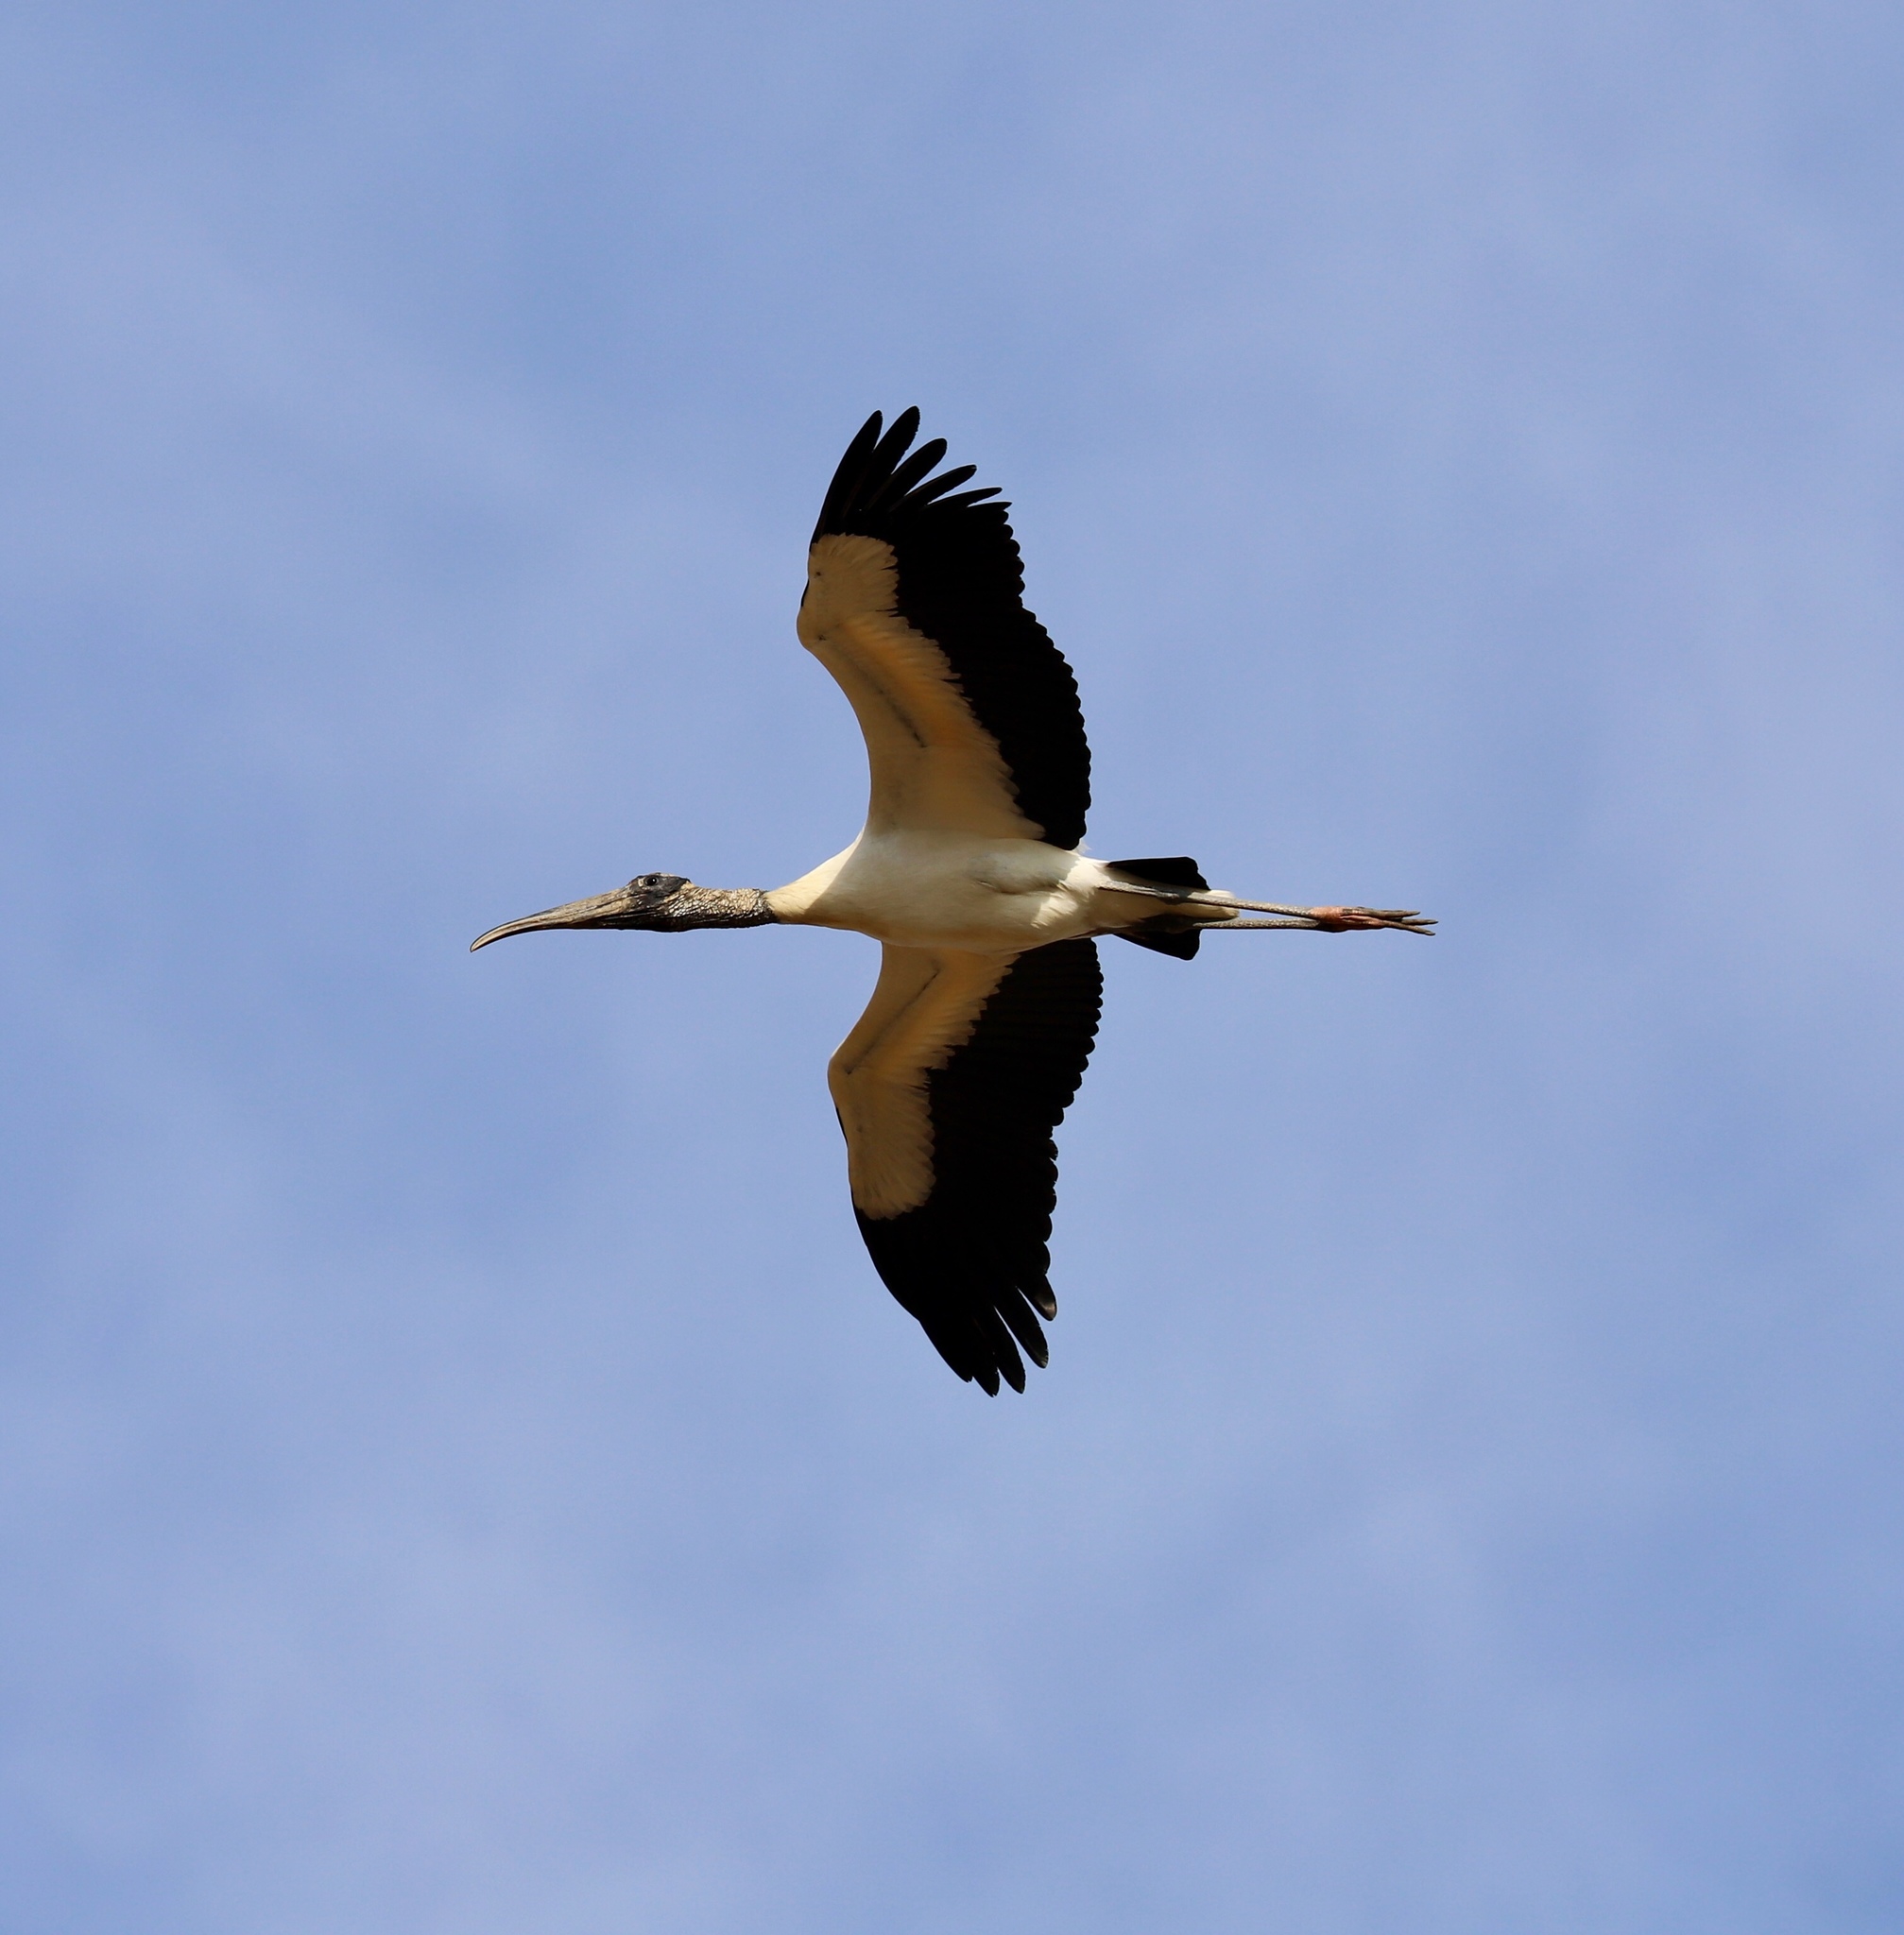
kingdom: Animalia
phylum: Chordata
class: Aves
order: Ciconiiformes
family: Ciconiidae
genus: Mycteria
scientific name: Mycteria americana
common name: Wood stork
